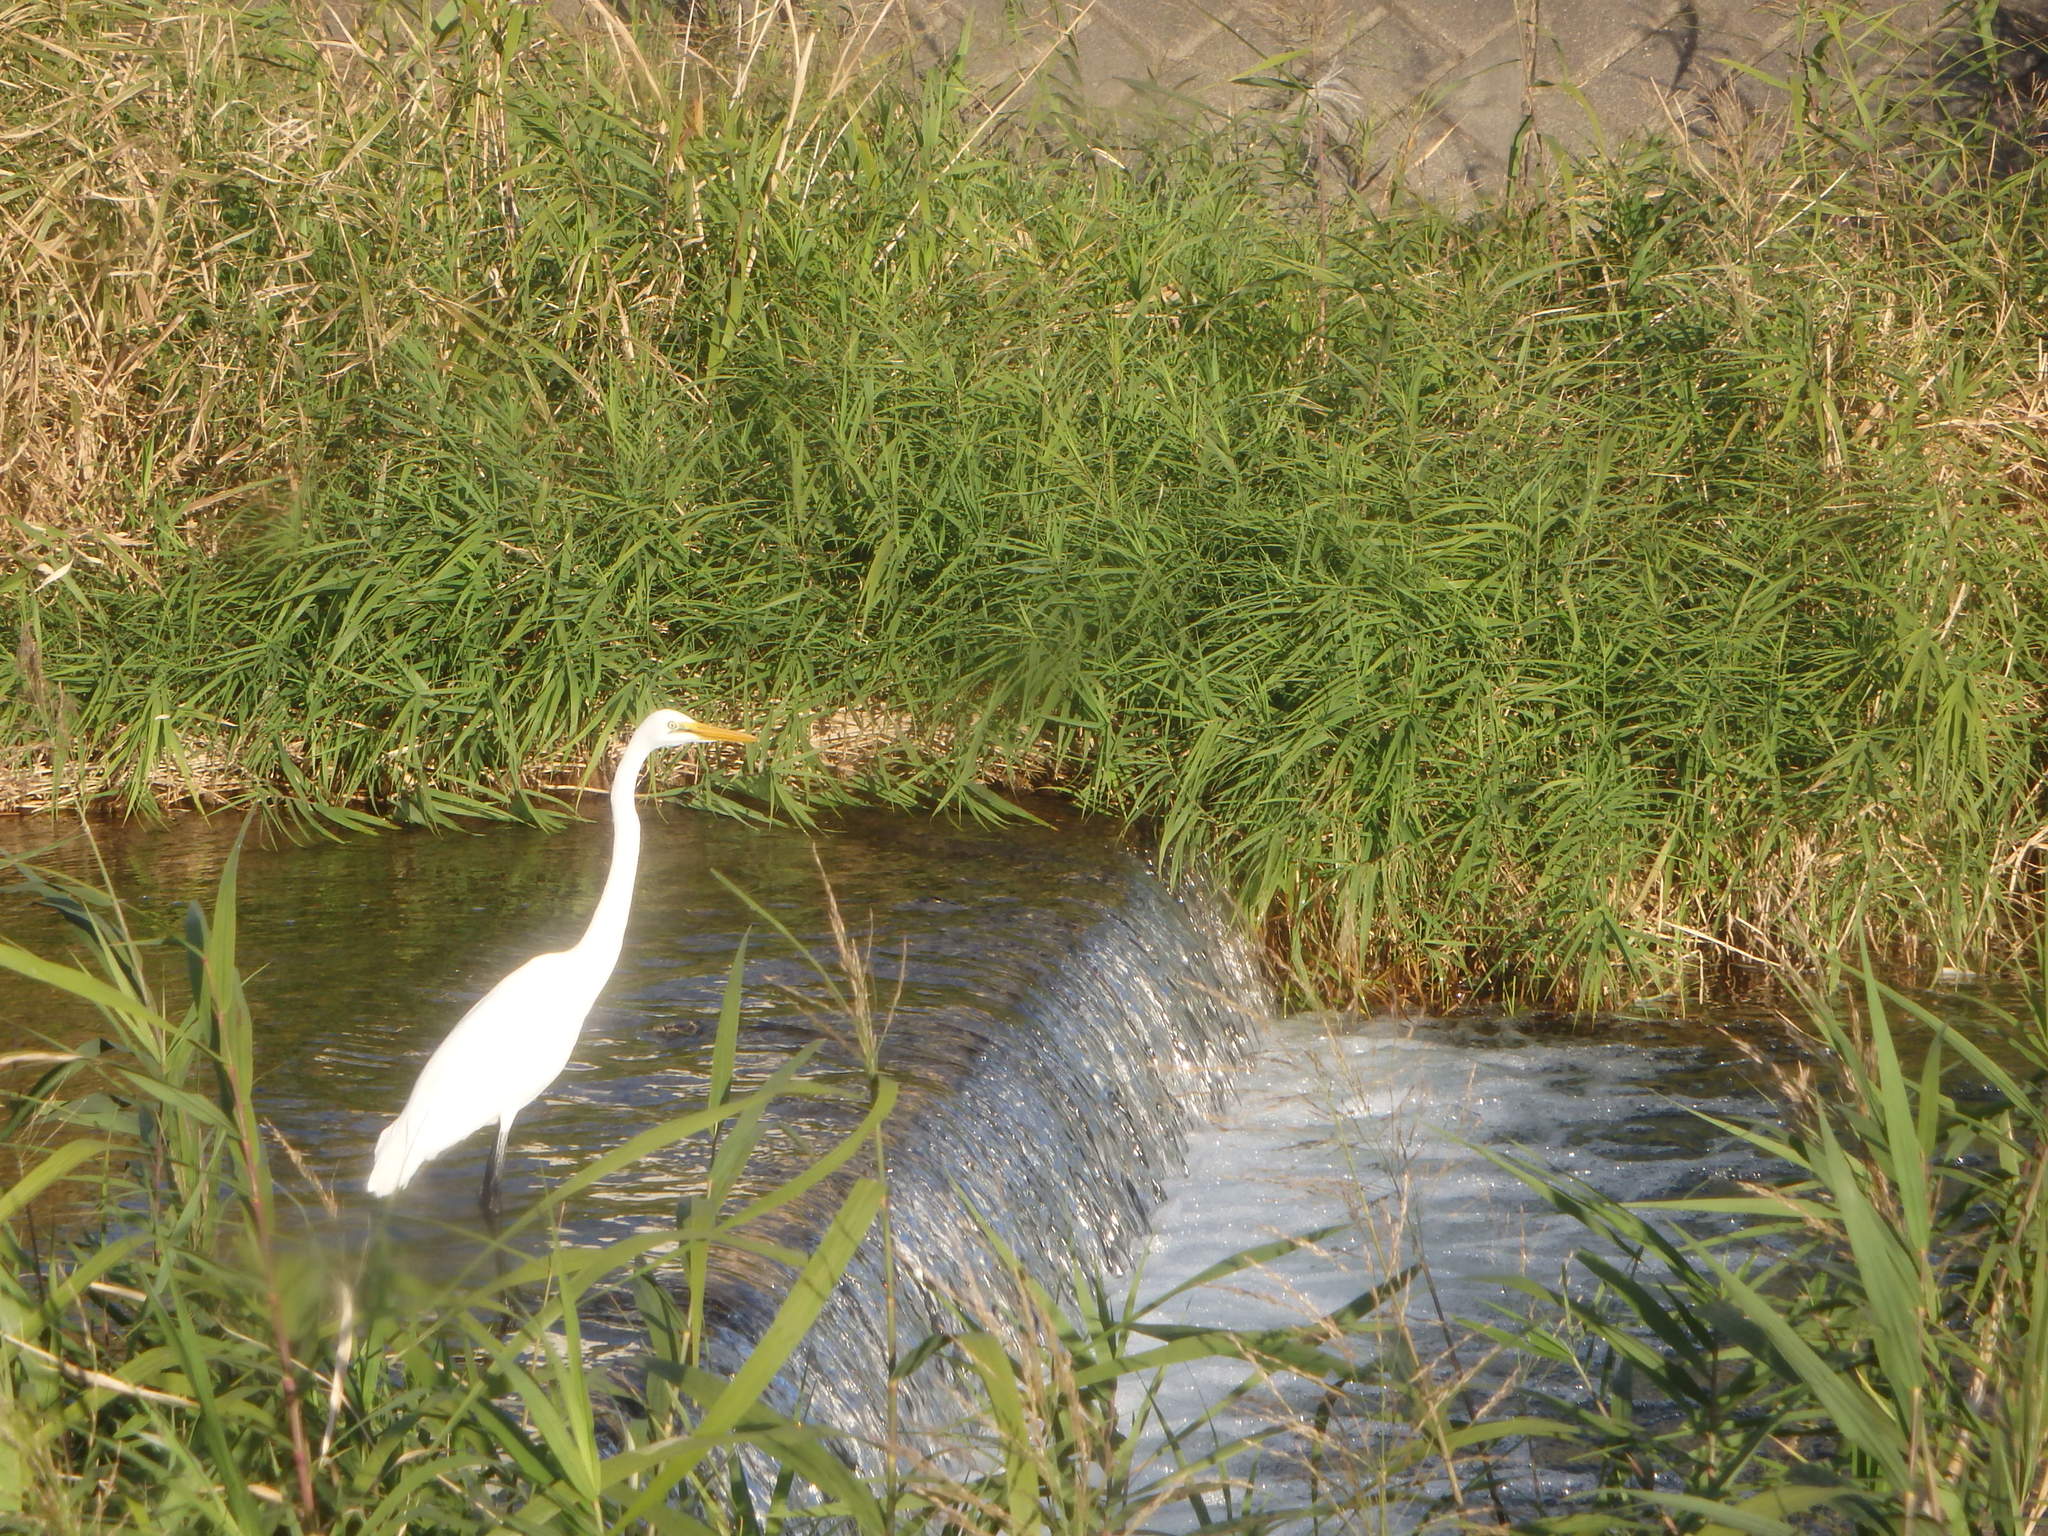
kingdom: Animalia
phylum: Chordata
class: Aves
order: Pelecaniformes
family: Ardeidae
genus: Ardea
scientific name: Ardea alba
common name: Great egret
